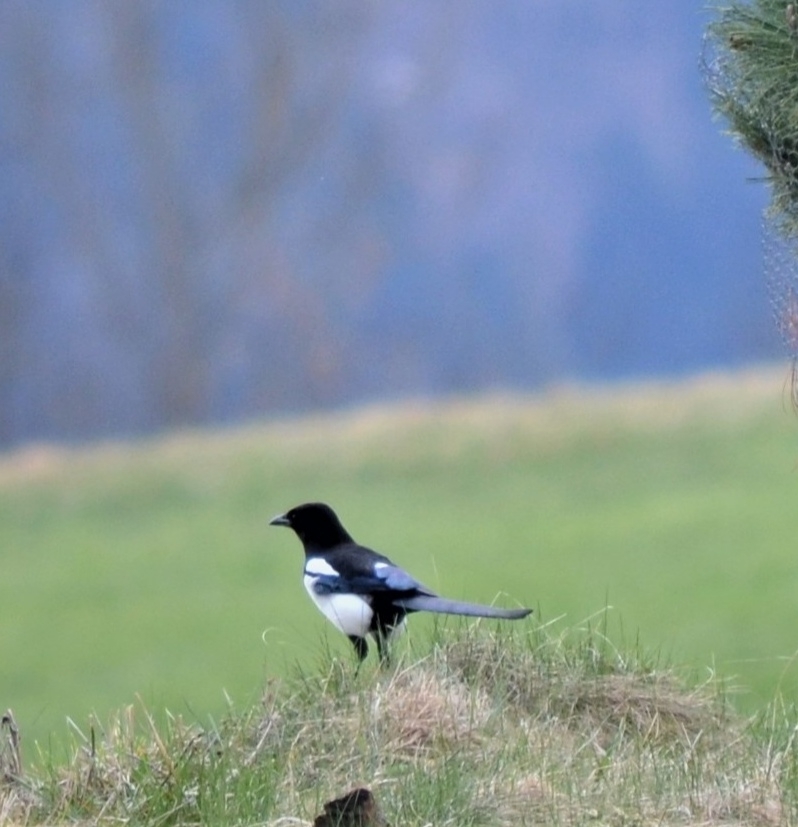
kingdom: Animalia
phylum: Chordata
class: Aves
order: Passeriformes
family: Corvidae
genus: Pica
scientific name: Pica pica
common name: Eurasian magpie
